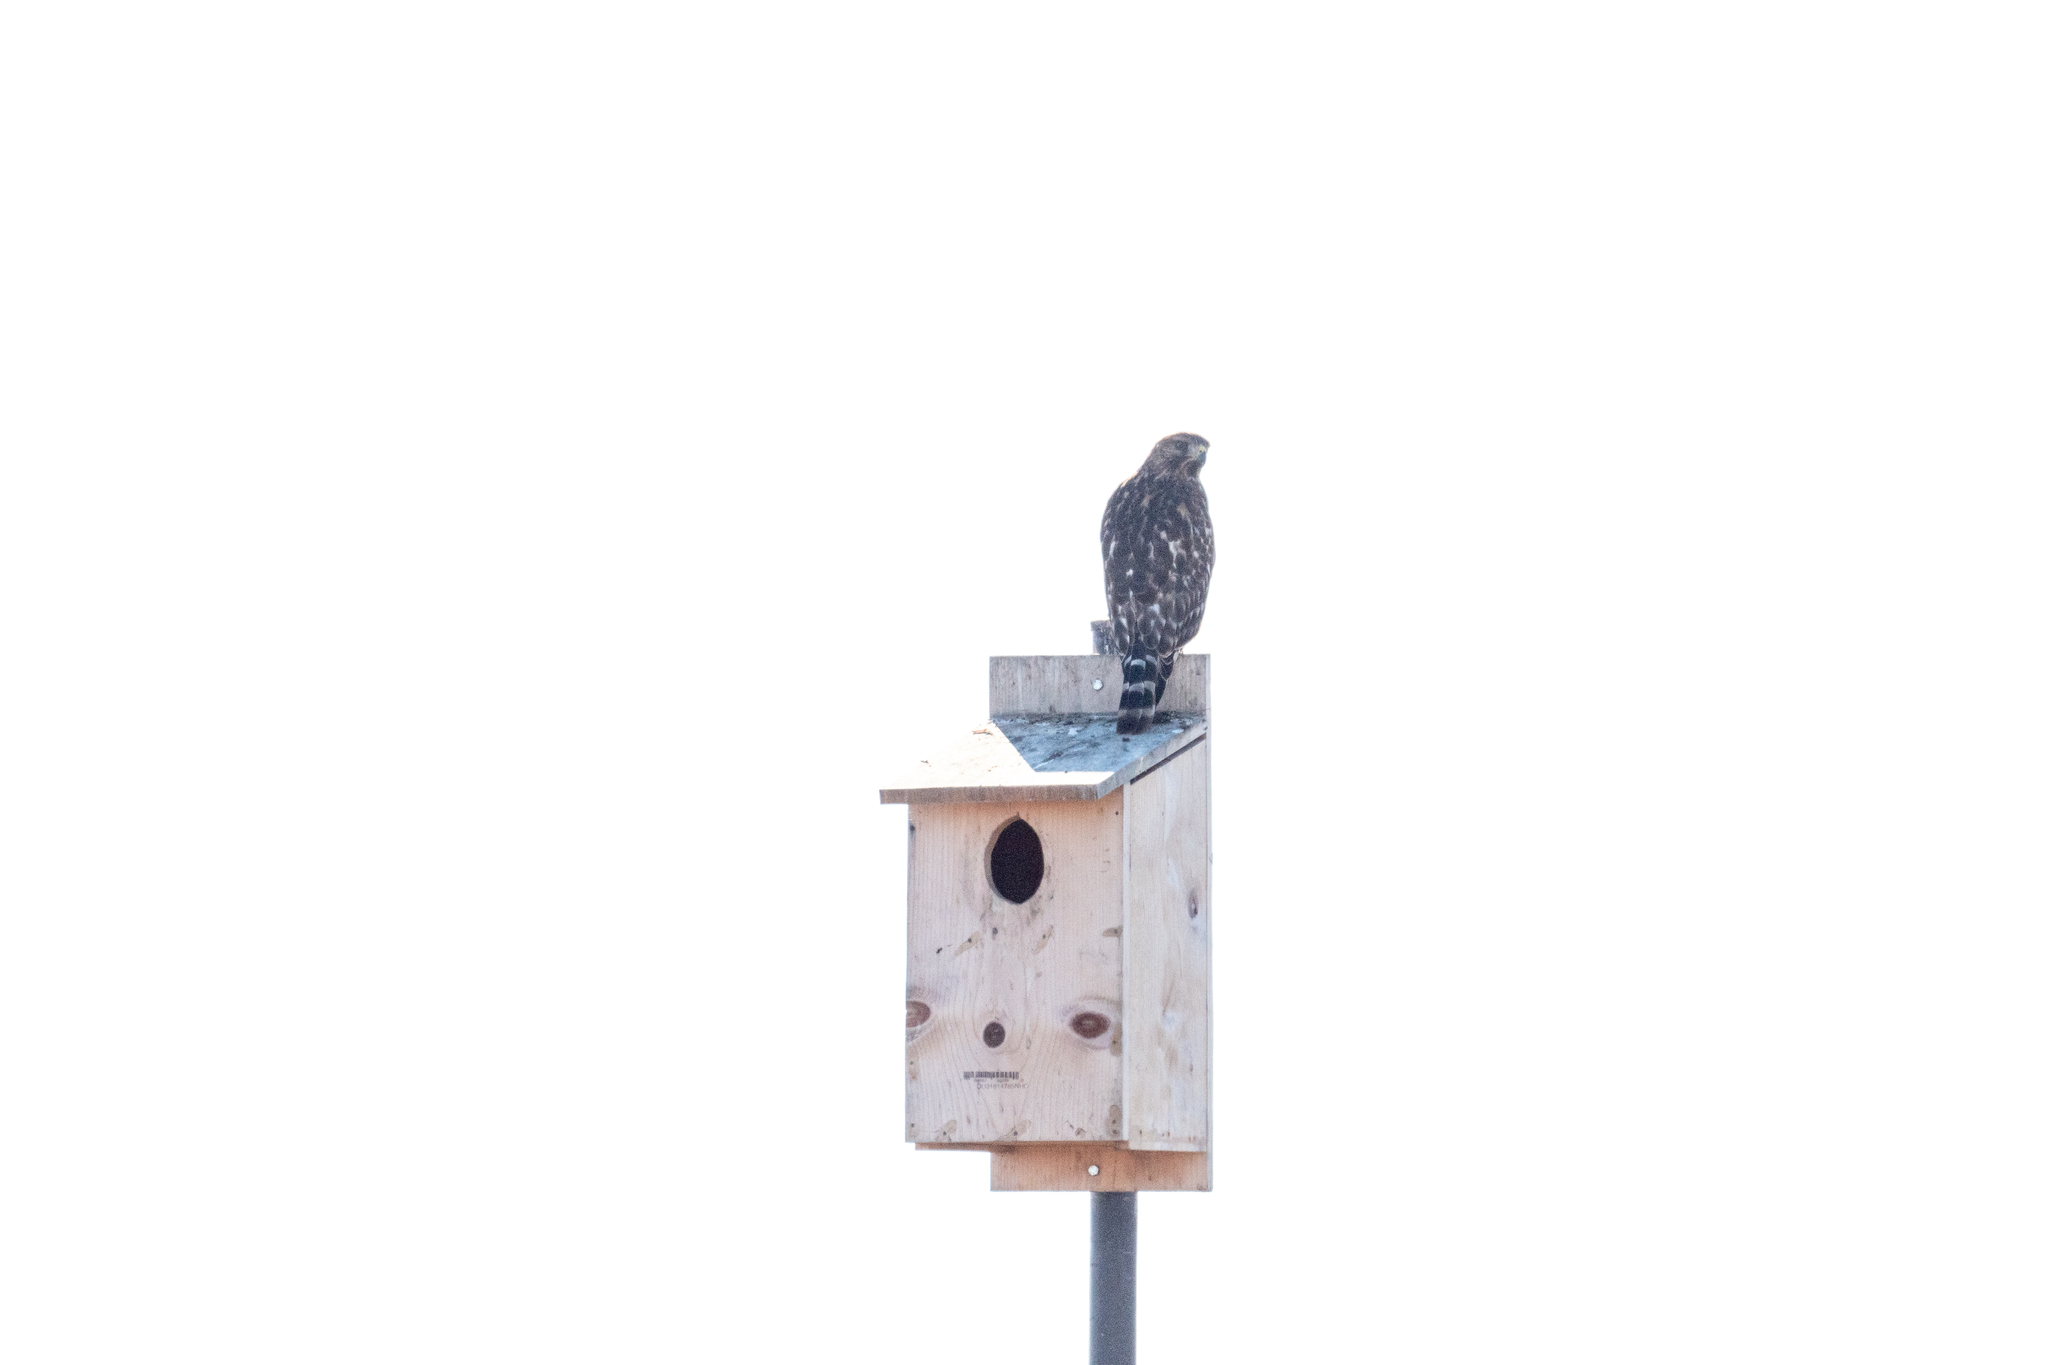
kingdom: Animalia
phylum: Chordata
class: Aves
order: Accipitriformes
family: Accipitridae
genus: Buteo
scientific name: Buteo lineatus
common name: Red-shouldered hawk
